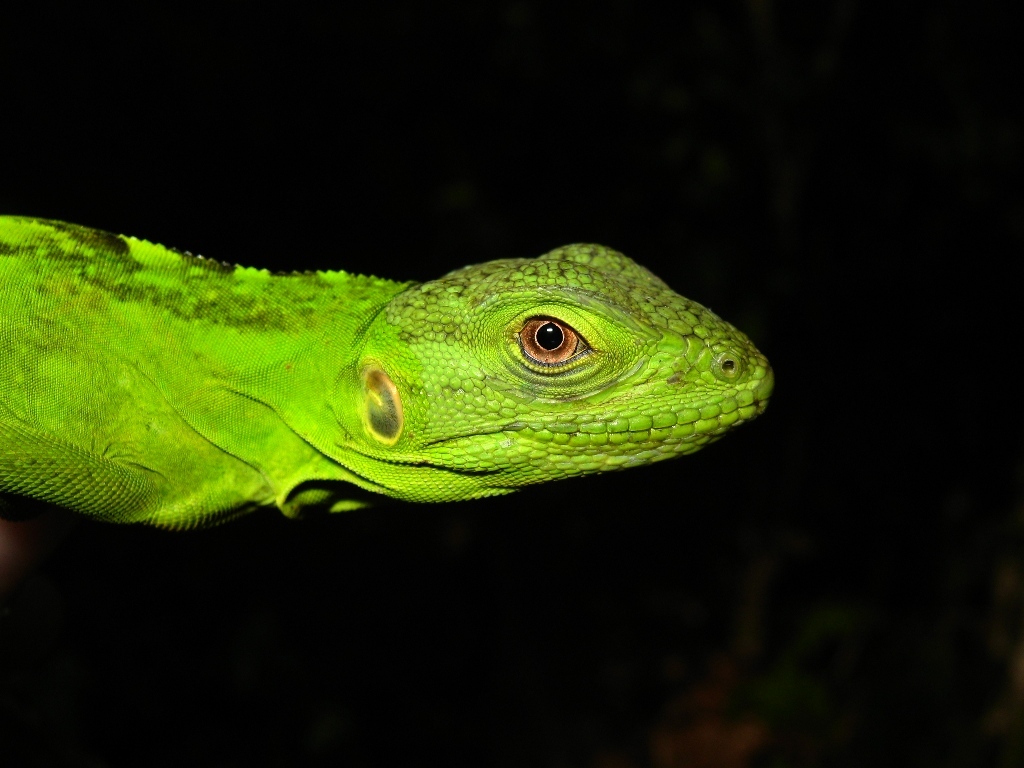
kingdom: Animalia
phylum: Chordata
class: Squamata
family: Iguanidae
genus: Ctenosaura
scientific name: Ctenosaura pectinata
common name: Guerreran spiny-tailed iguana
